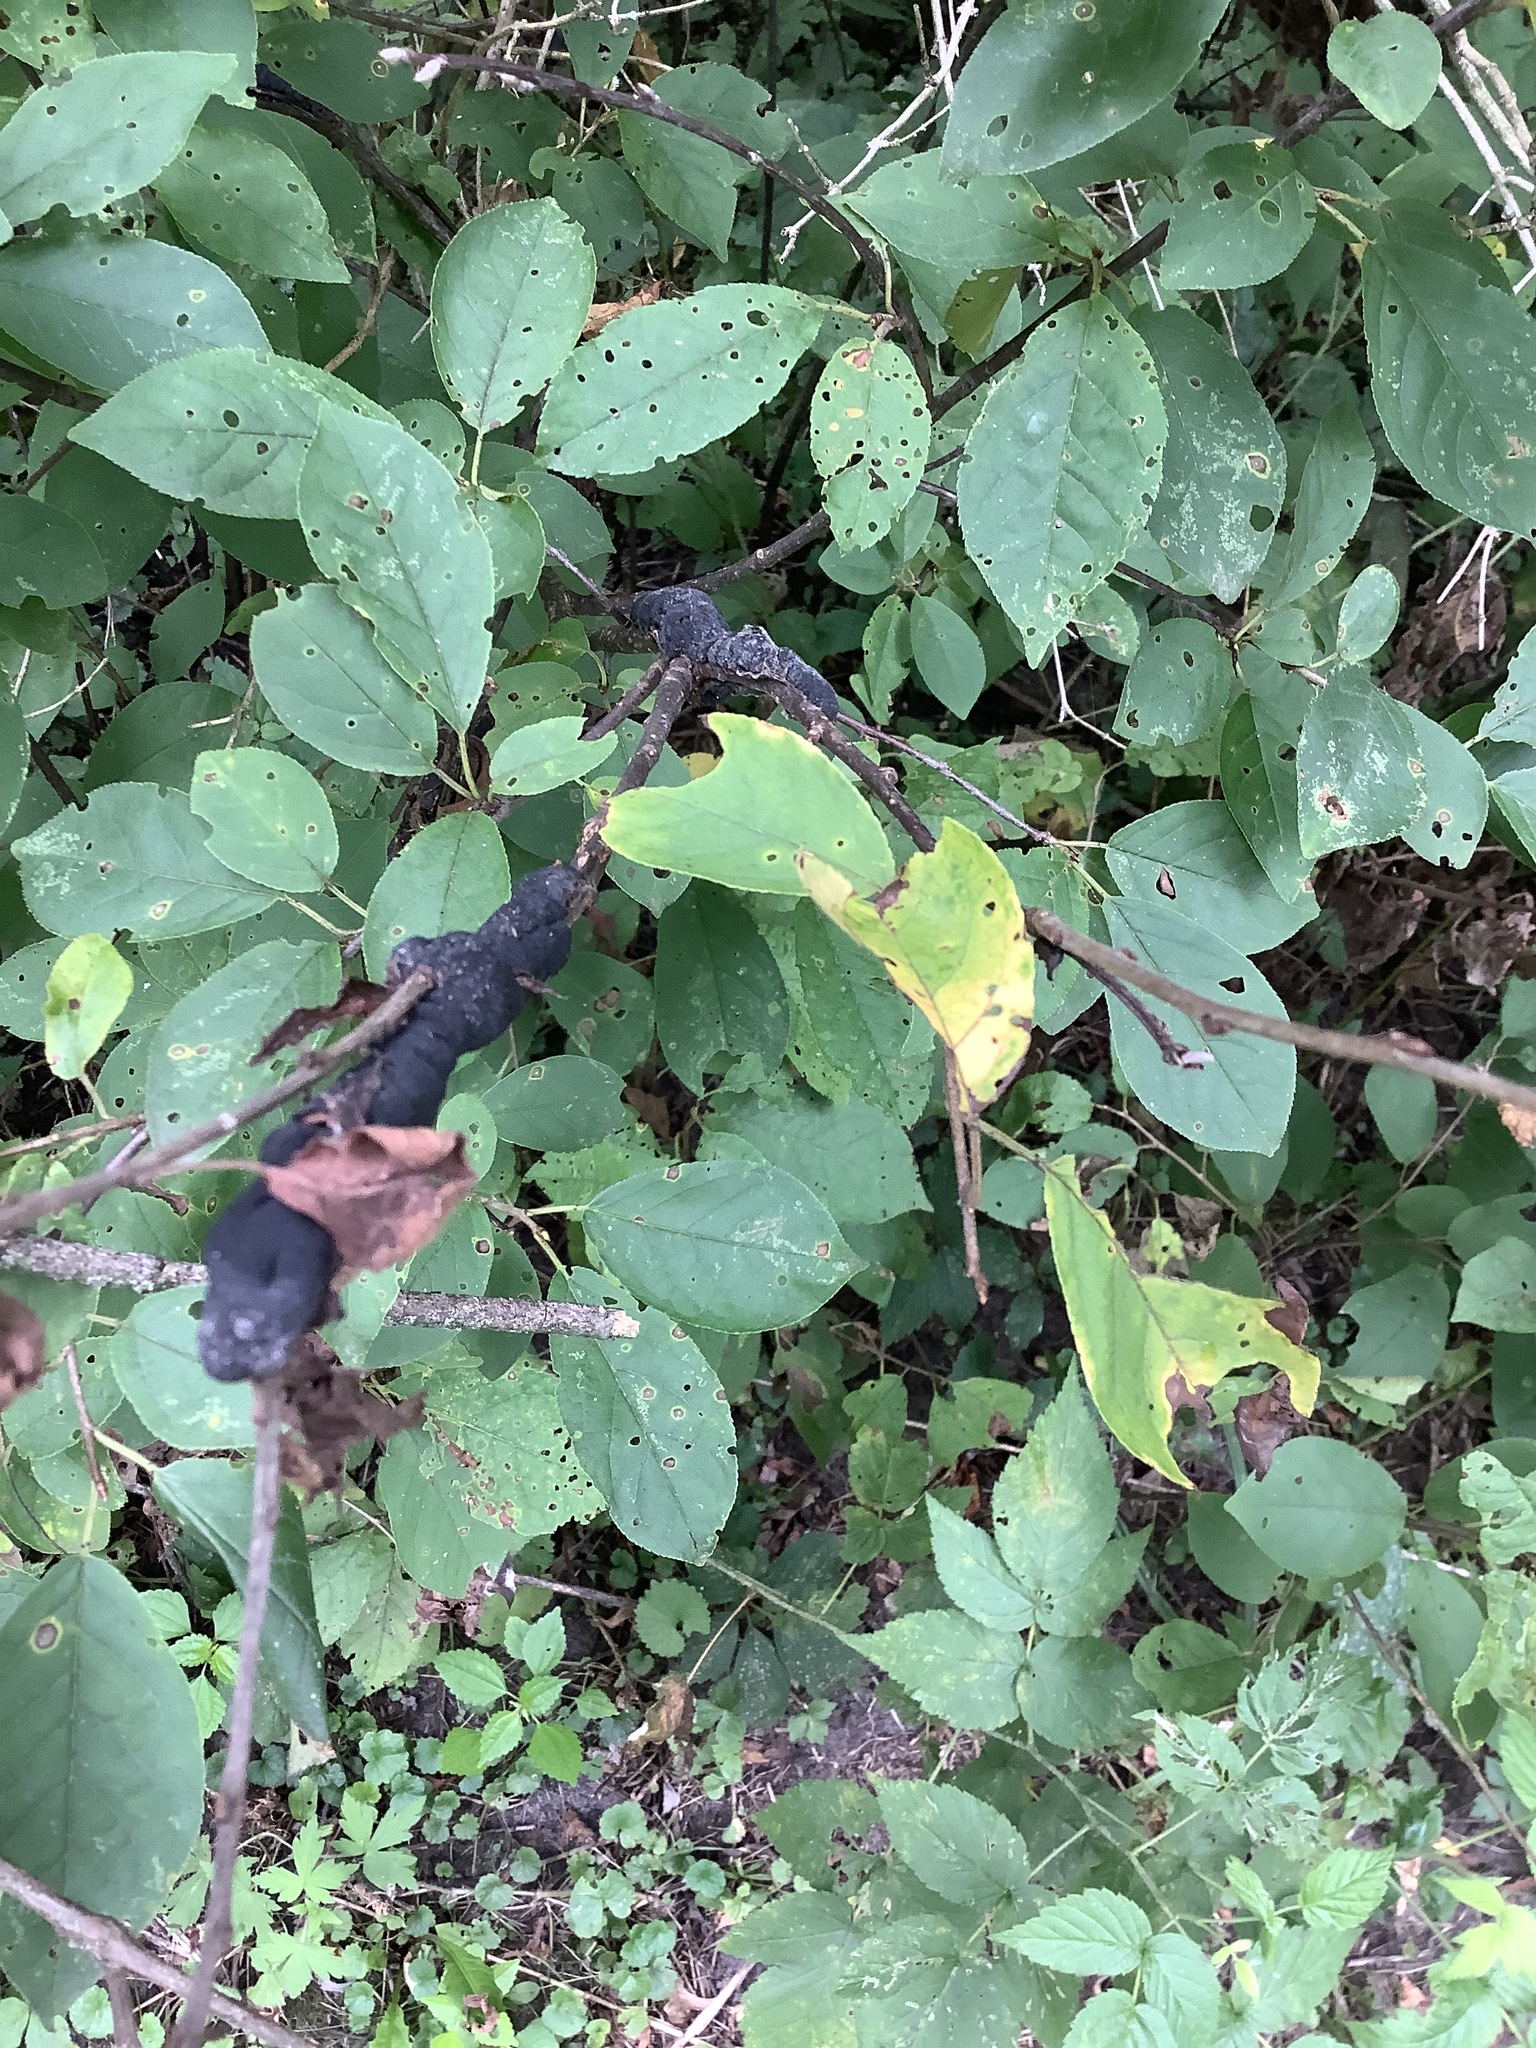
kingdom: Fungi
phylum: Ascomycota
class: Dothideomycetes
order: Venturiales
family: Venturiaceae
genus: Apiosporina
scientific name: Apiosporina morbosa
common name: Black knot
